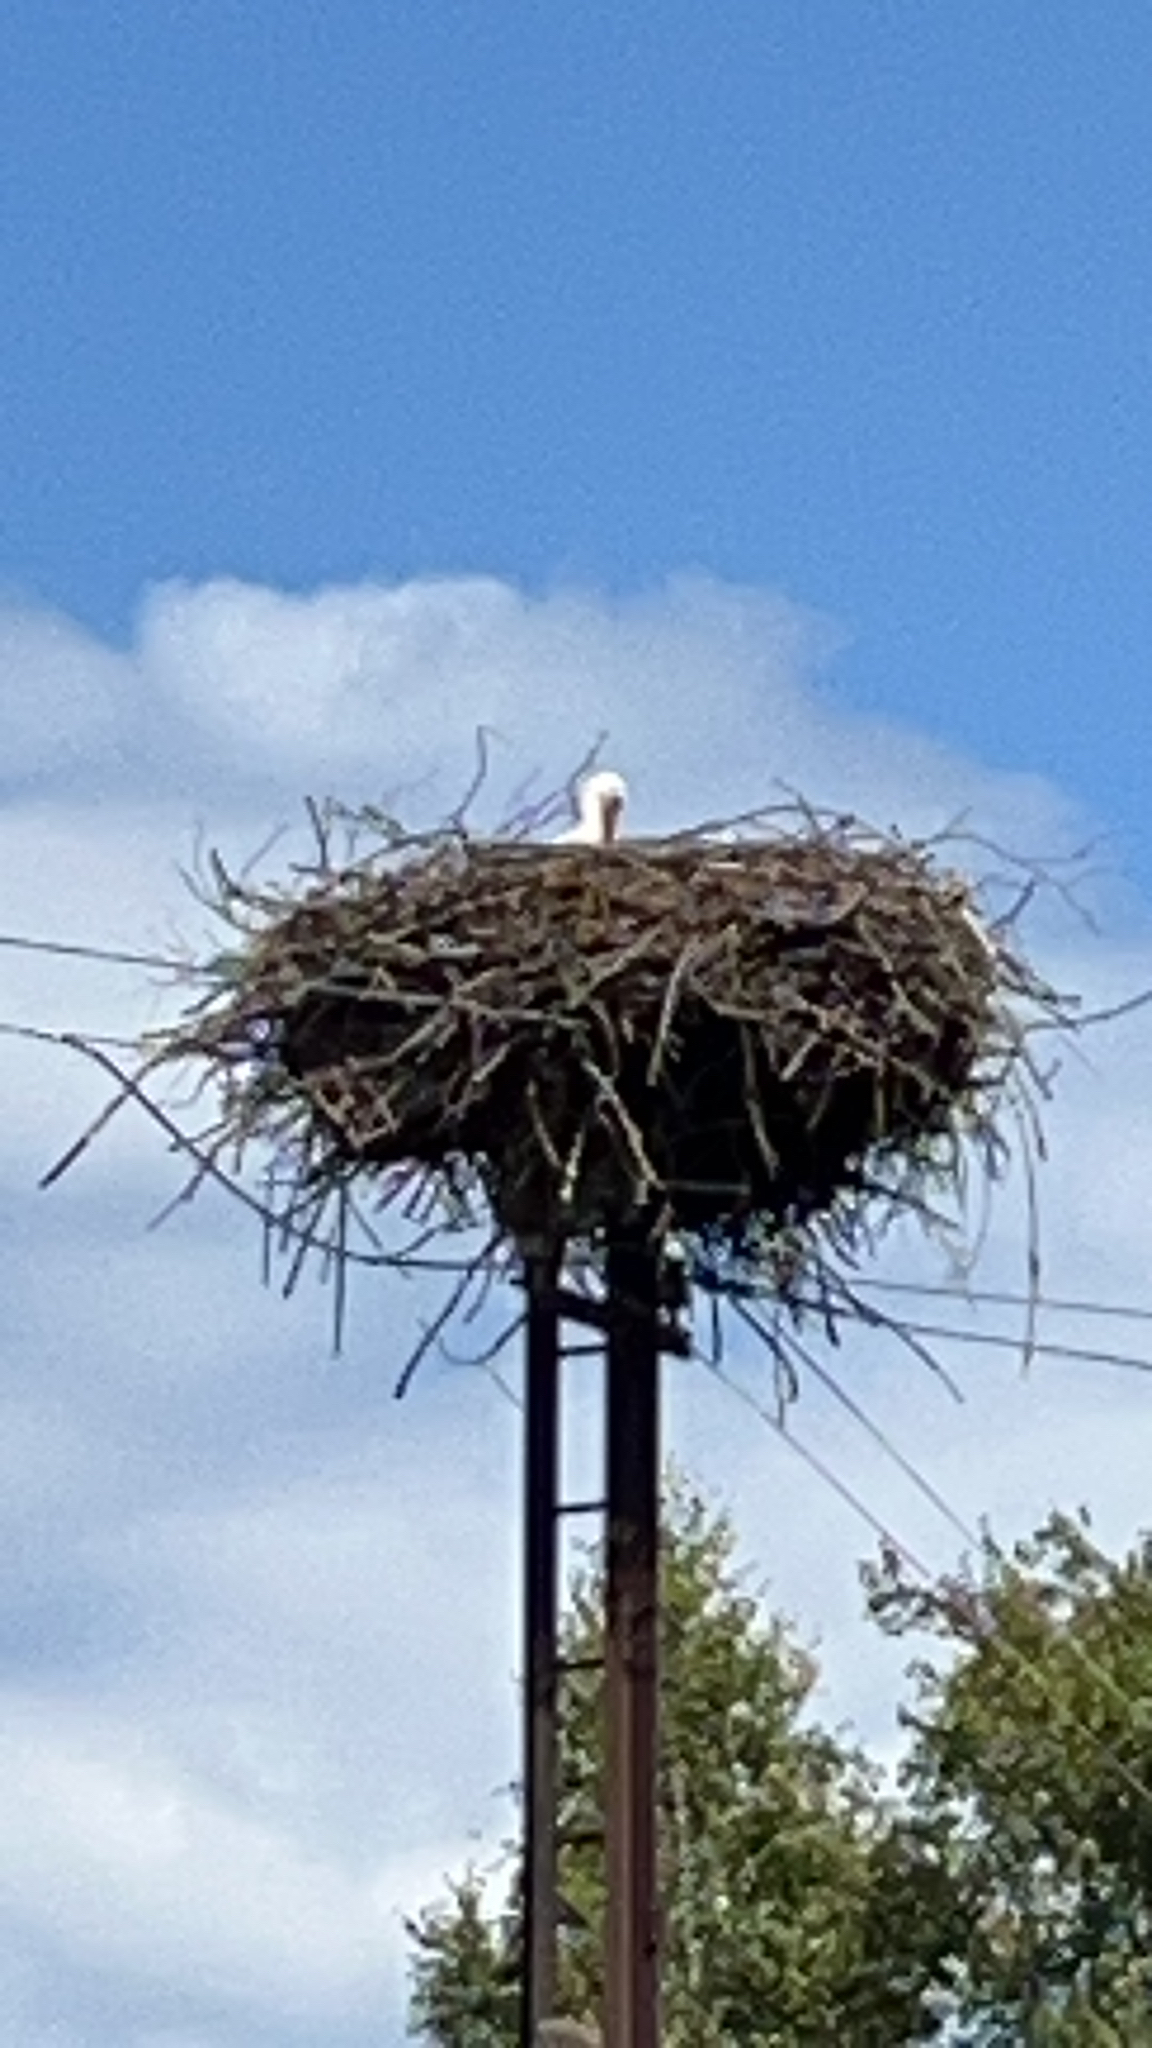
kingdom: Animalia
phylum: Chordata
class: Aves
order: Ciconiiformes
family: Ciconiidae
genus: Ciconia
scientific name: Ciconia ciconia
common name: White stork
